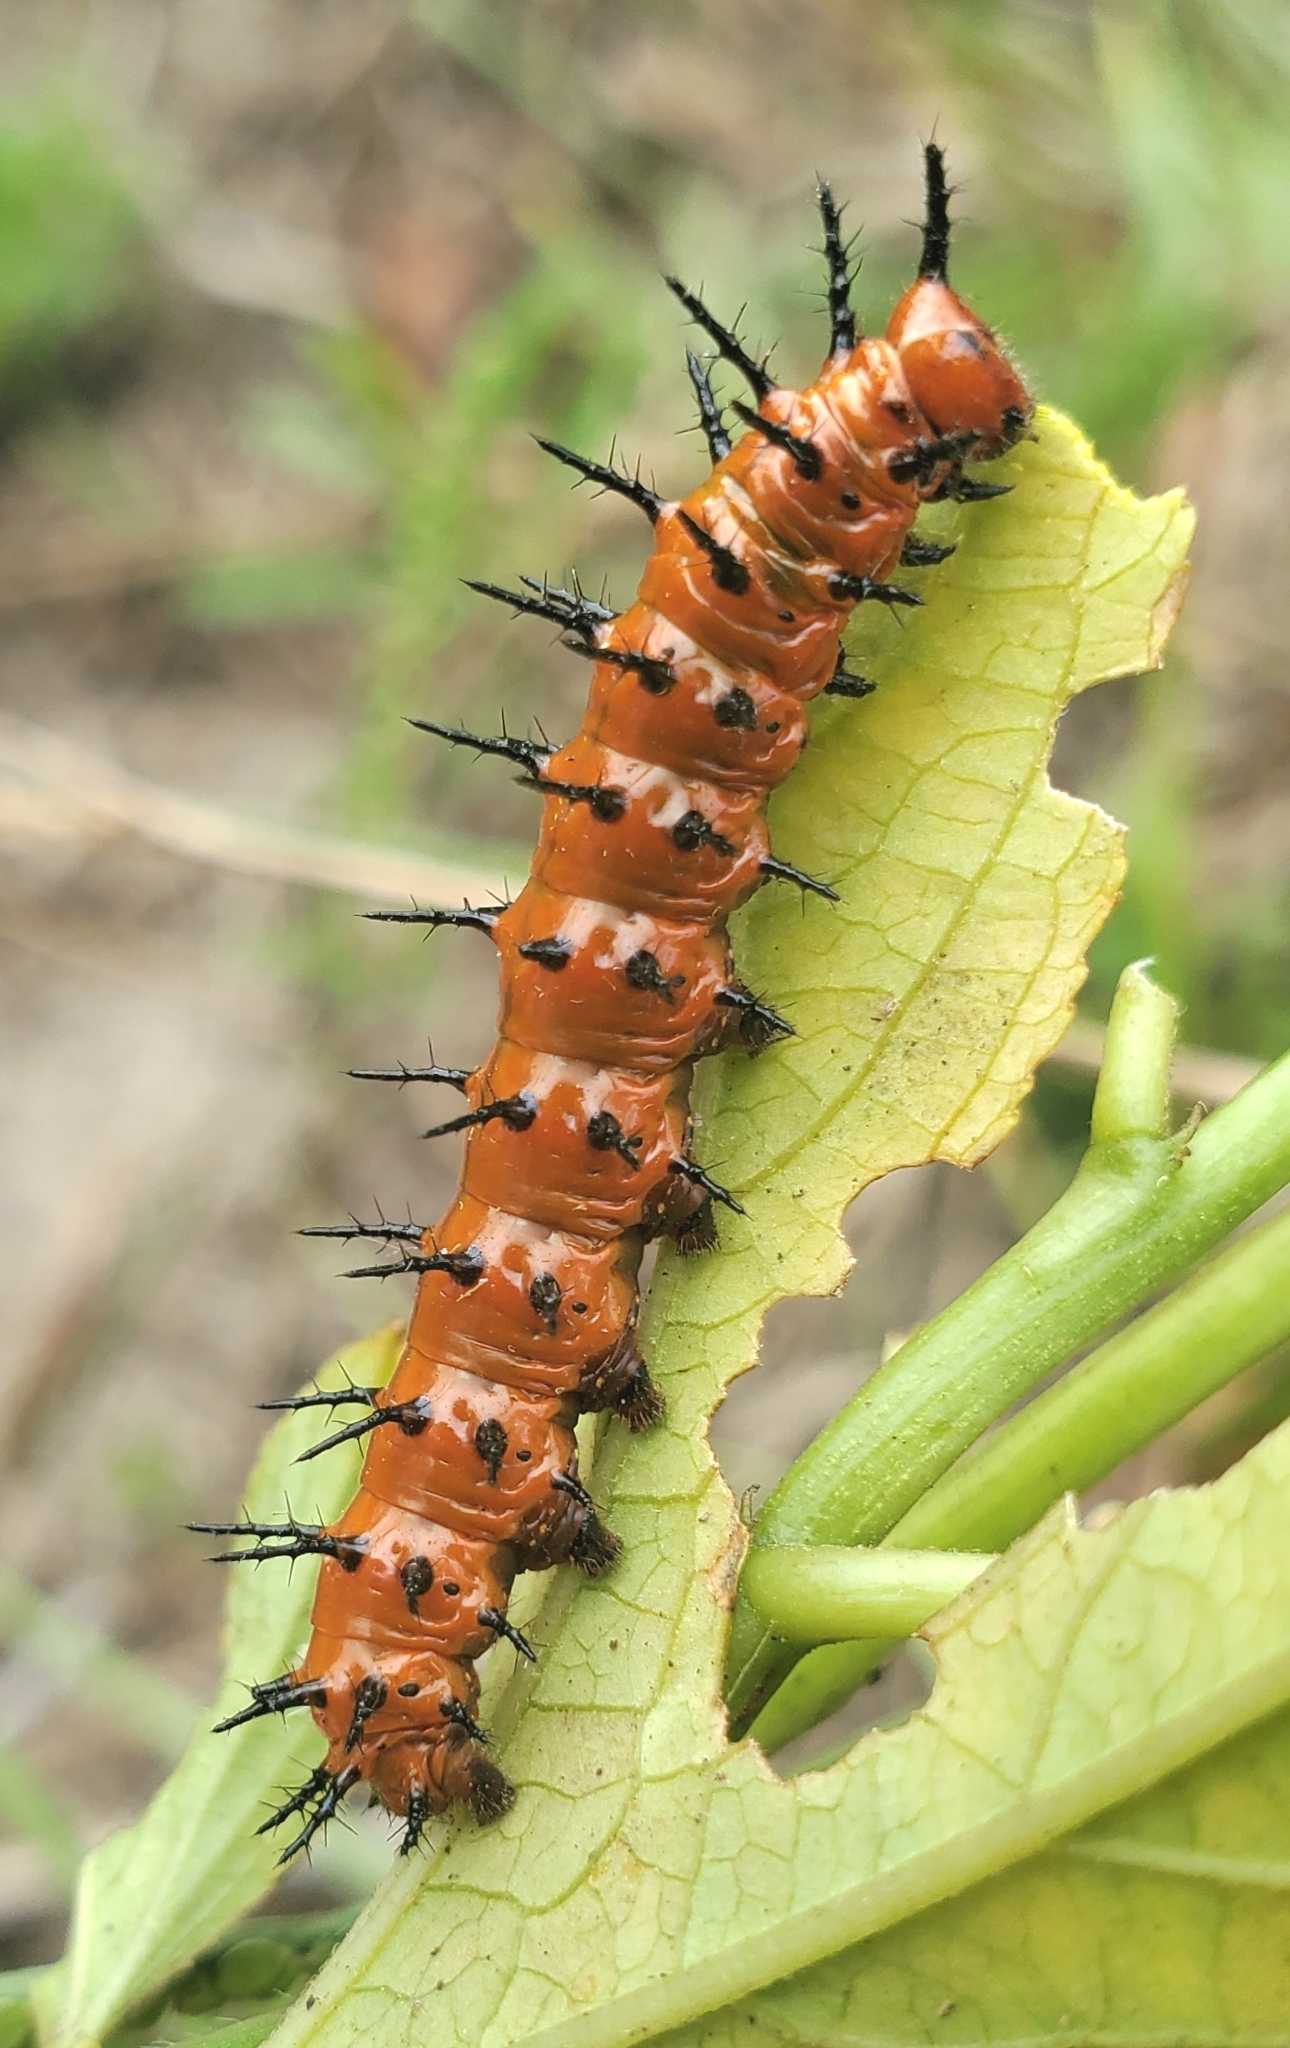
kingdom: Animalia
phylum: Arthropoda
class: Insecta
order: Lepidoptera
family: Nymphalidae
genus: Dione
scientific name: Dione vanillae
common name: Gulf fritillary
